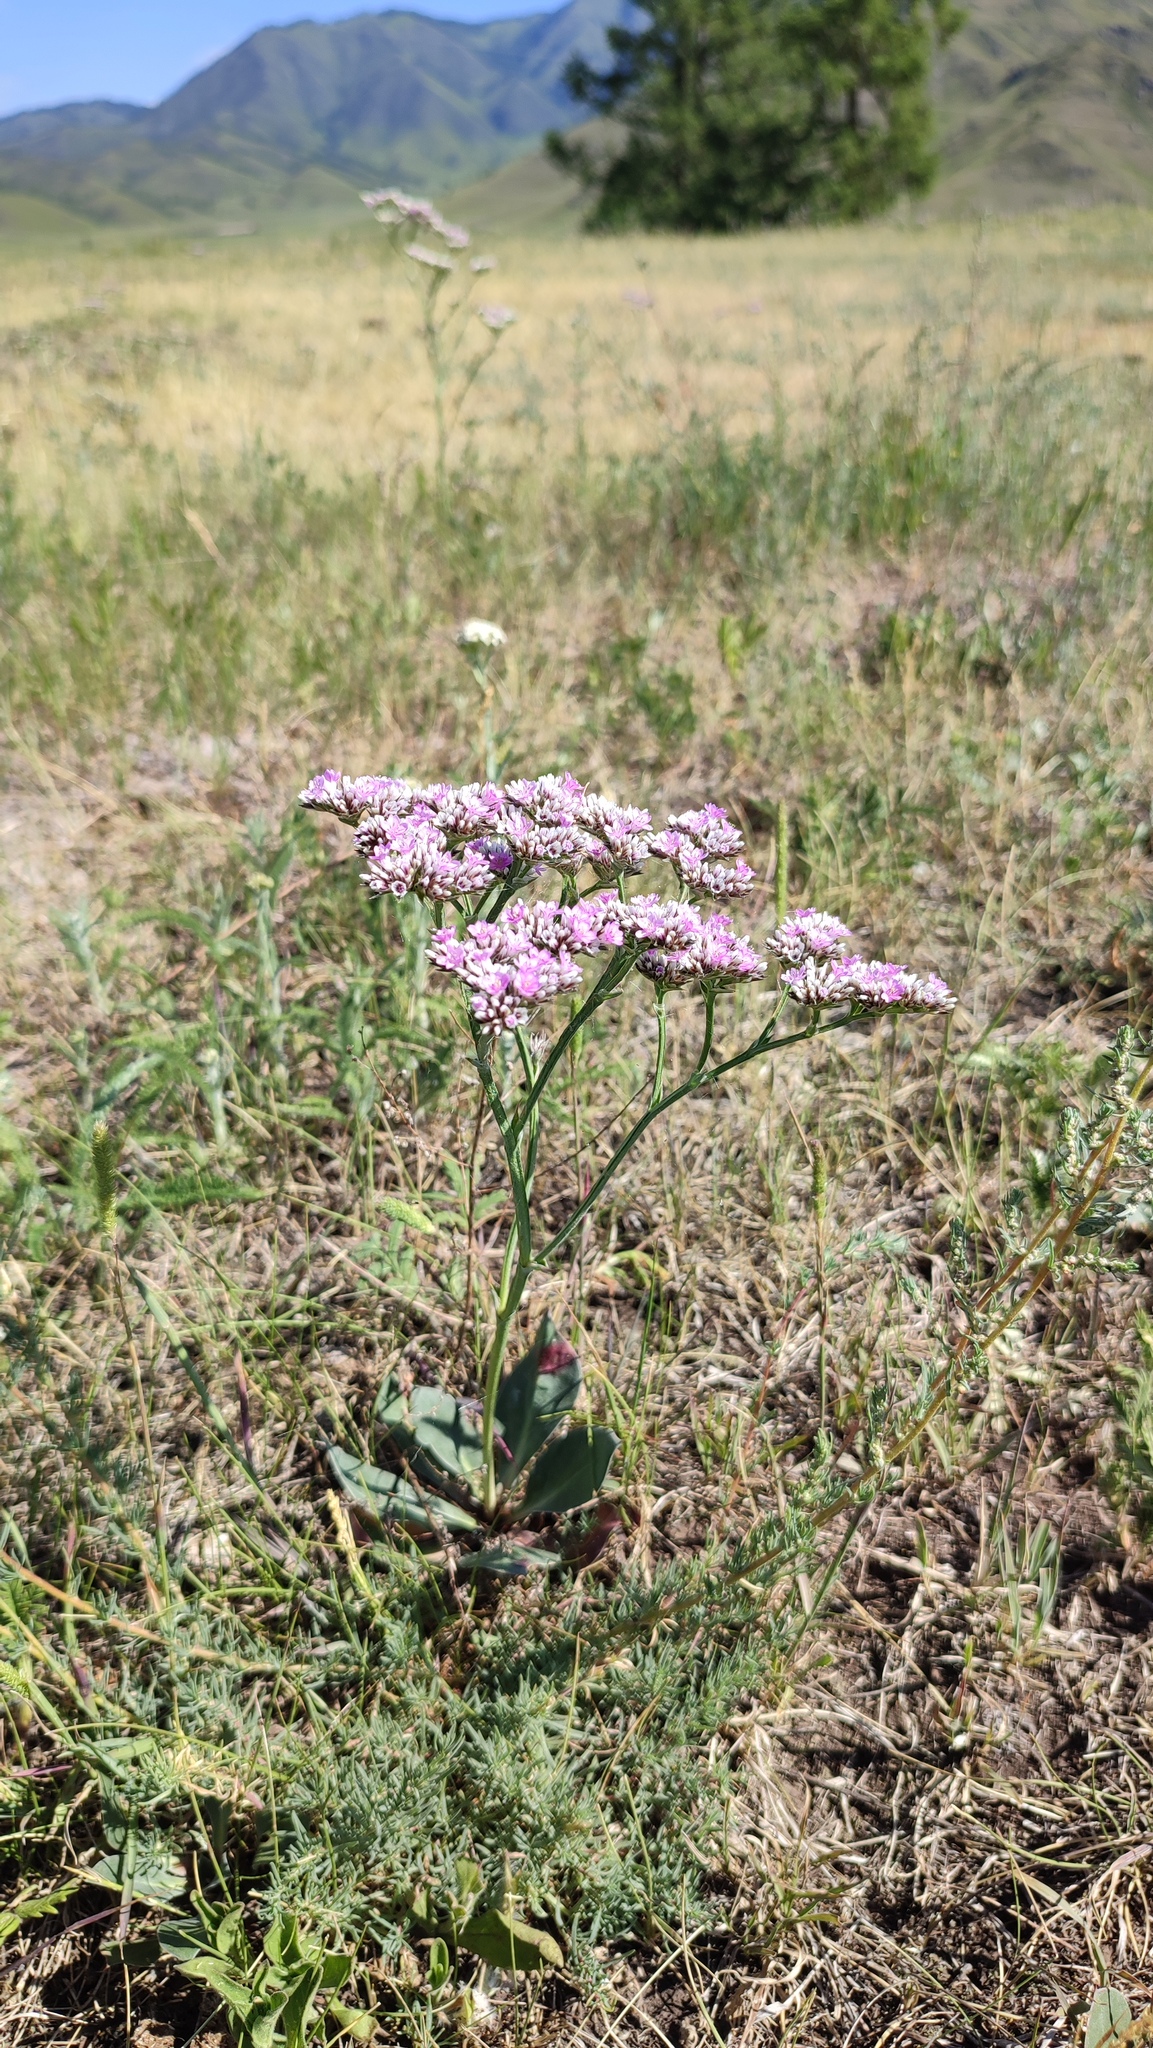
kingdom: Plantae
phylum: Tracheophyta
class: Magnoliopsida
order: Caryophyllales
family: Plumbaginaceae
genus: Goniolimon
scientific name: Goniolimon speciosum
